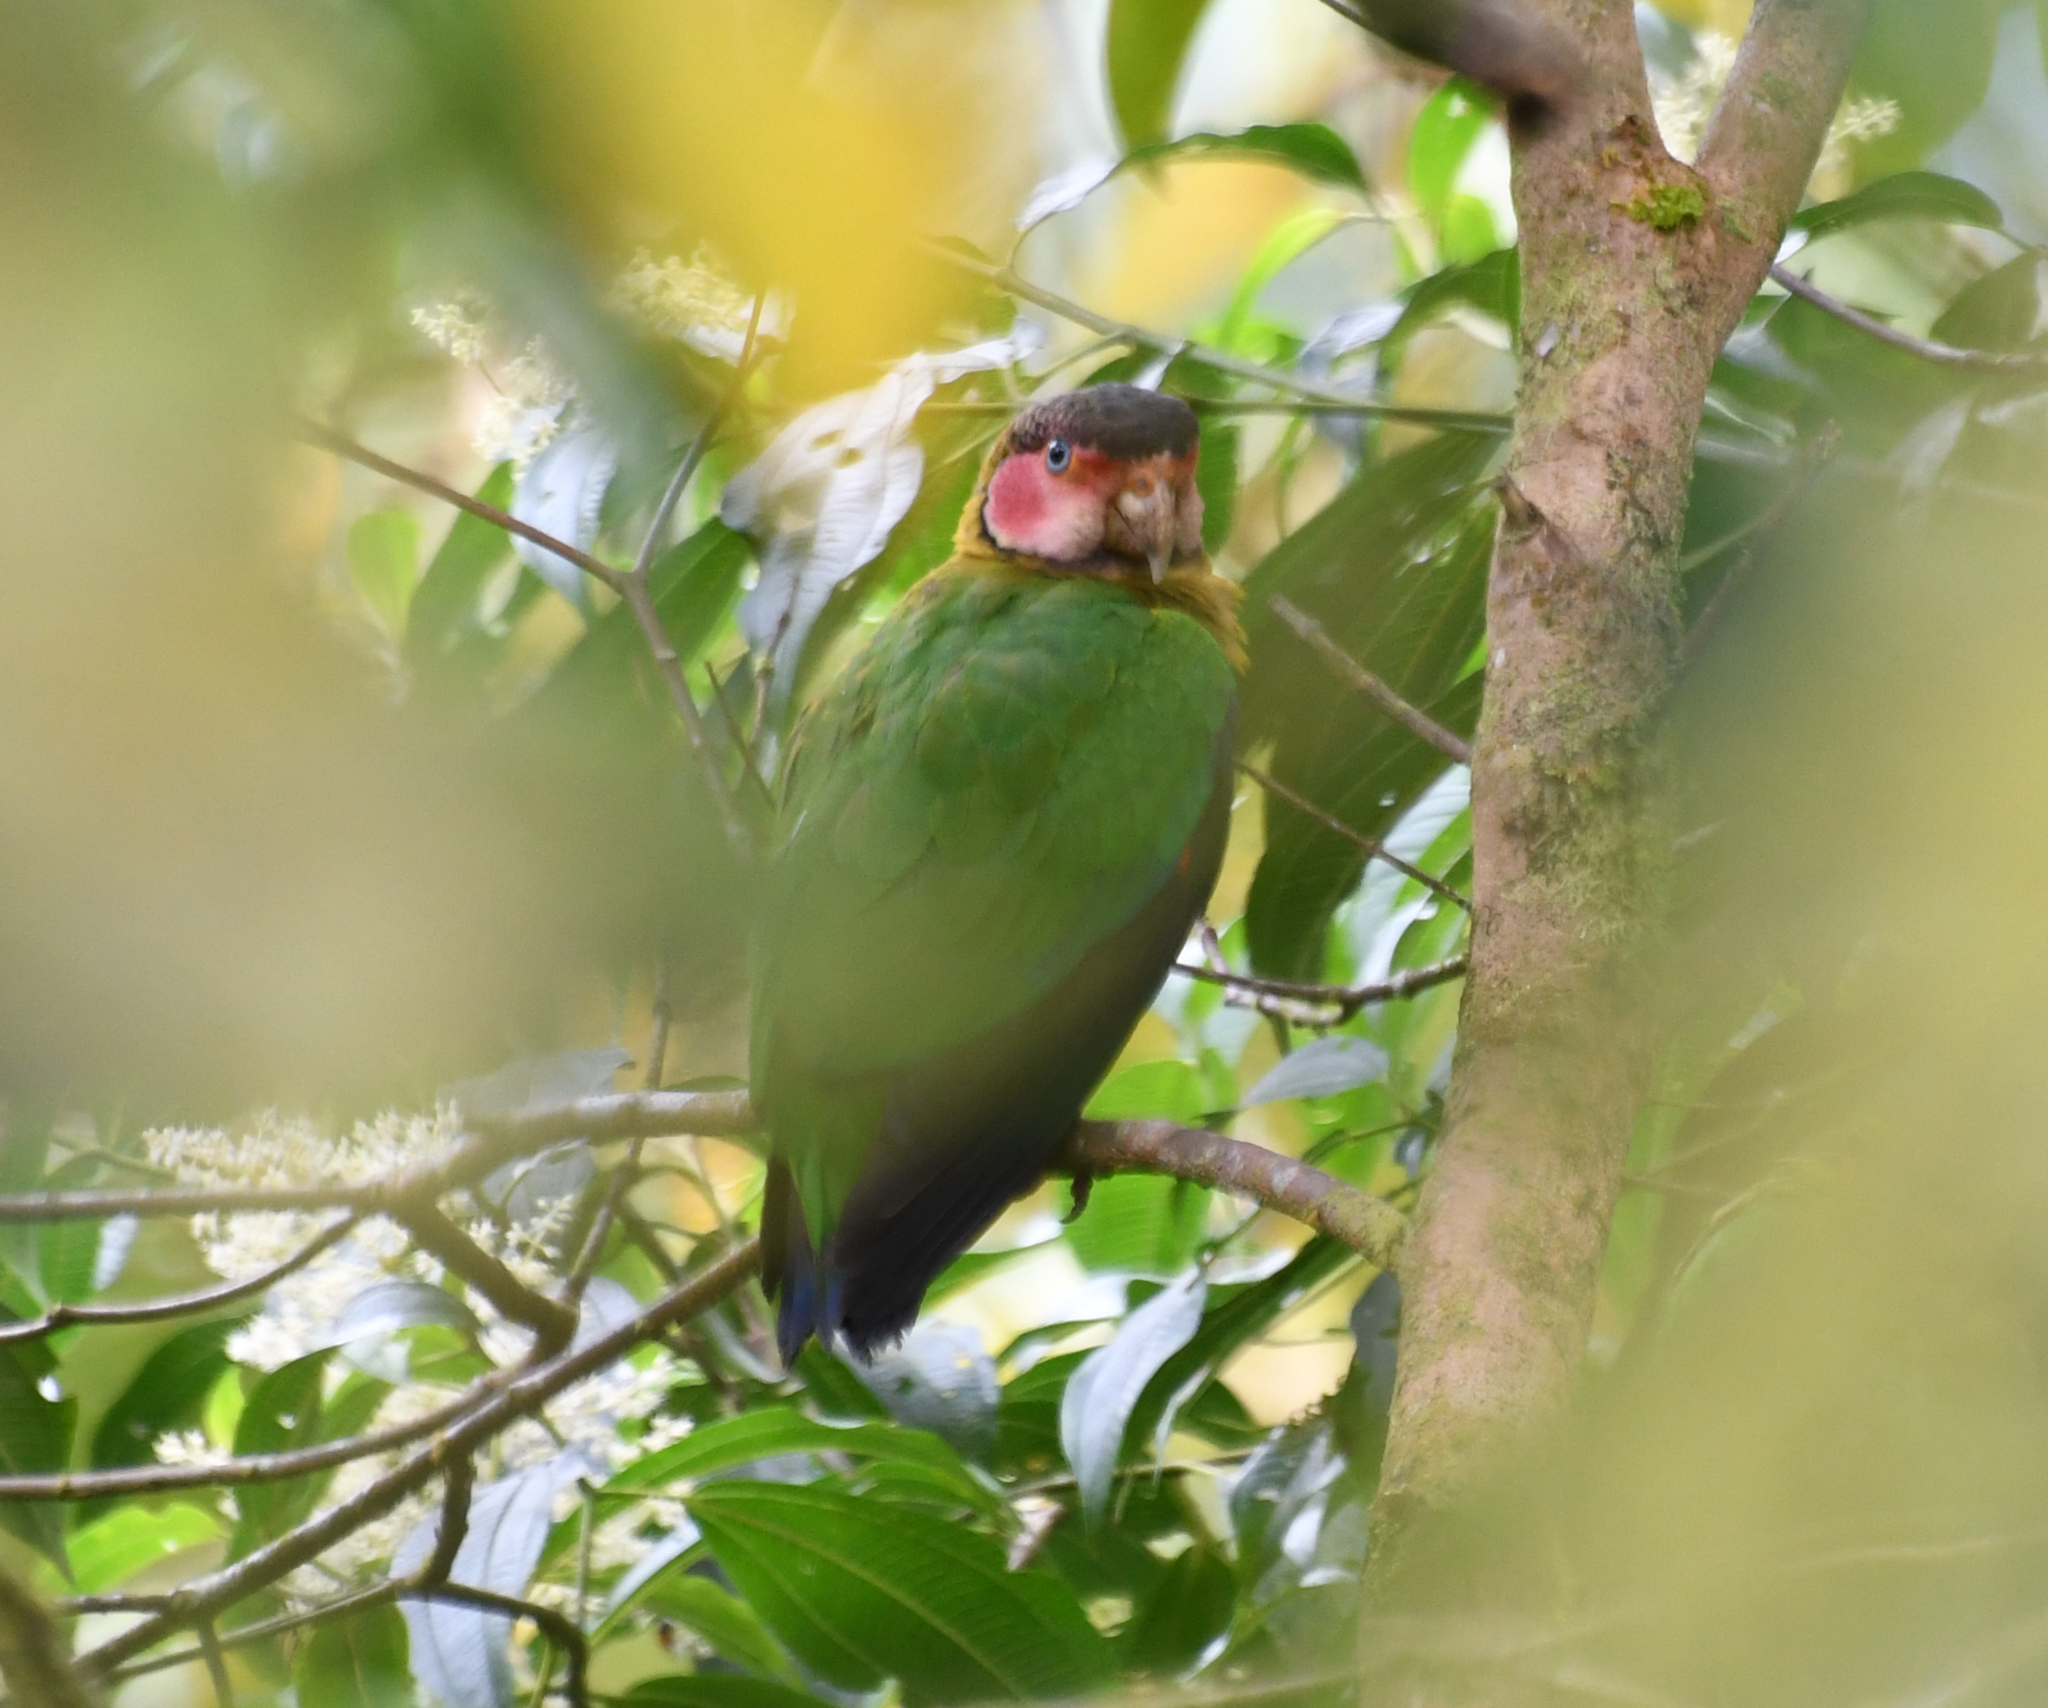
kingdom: Animalia
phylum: Chordata
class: Aves
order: Psittaciformes
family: Psittacidae
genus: Pionopsitta
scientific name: Pionopsitta pulchra
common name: Rose-faced parrot
